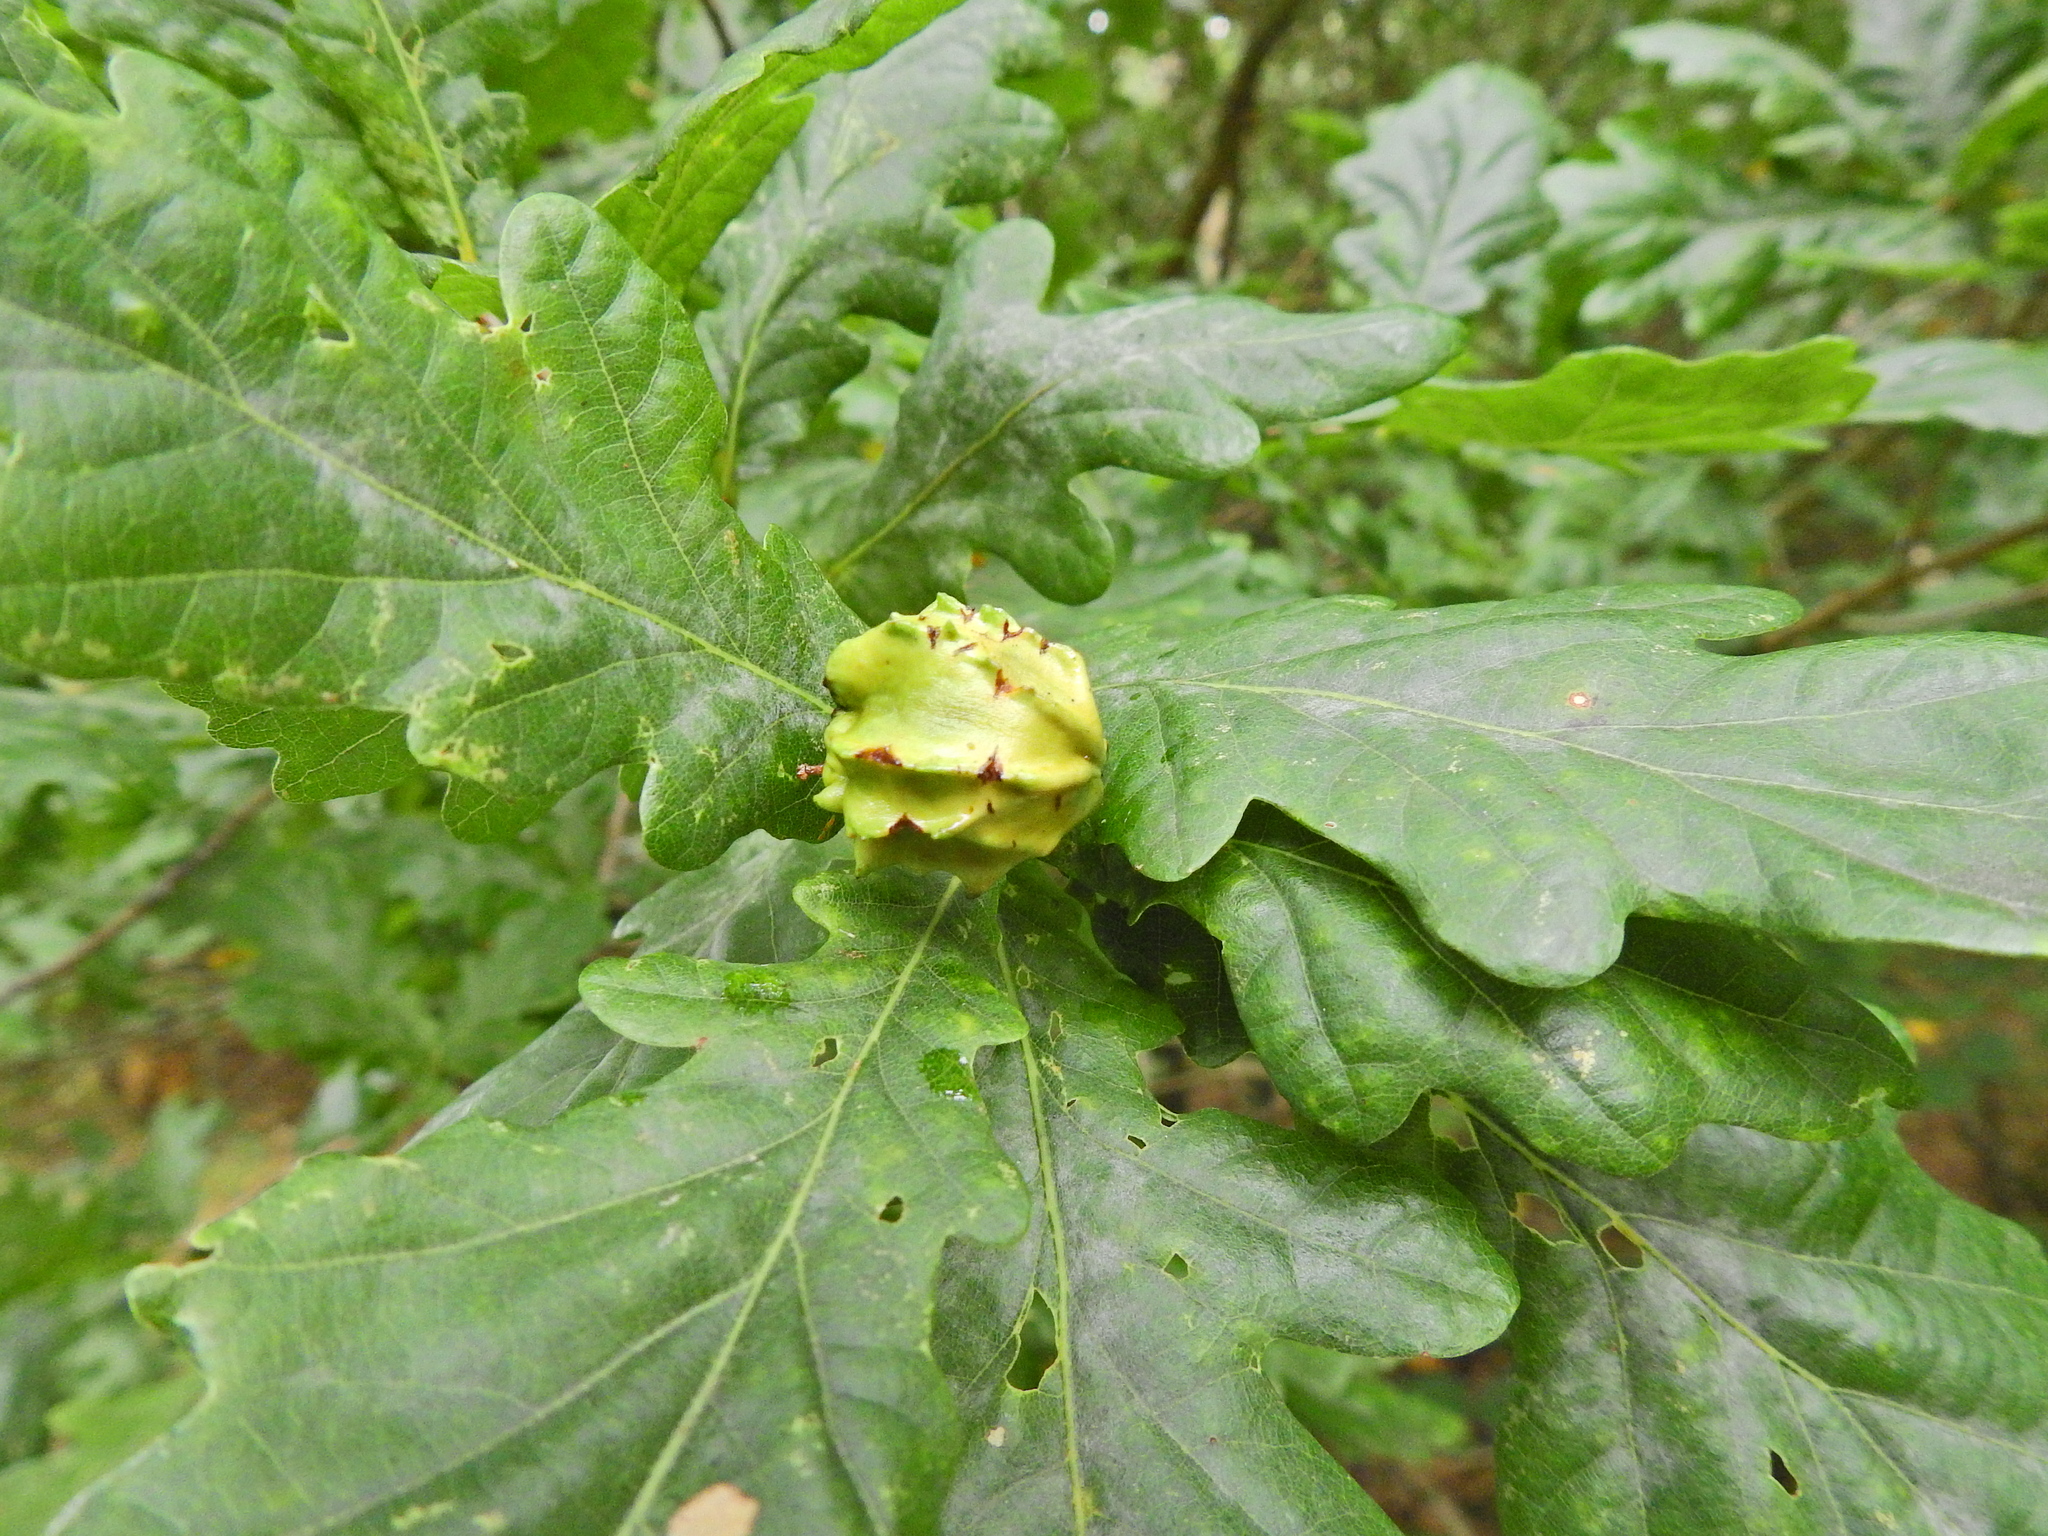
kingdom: Animalia
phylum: Arthropoda
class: Insecta
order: Hymenoptera
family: Cynipidae
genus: Andricus
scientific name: Andricus quercuscalicis
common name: Knopper gall
